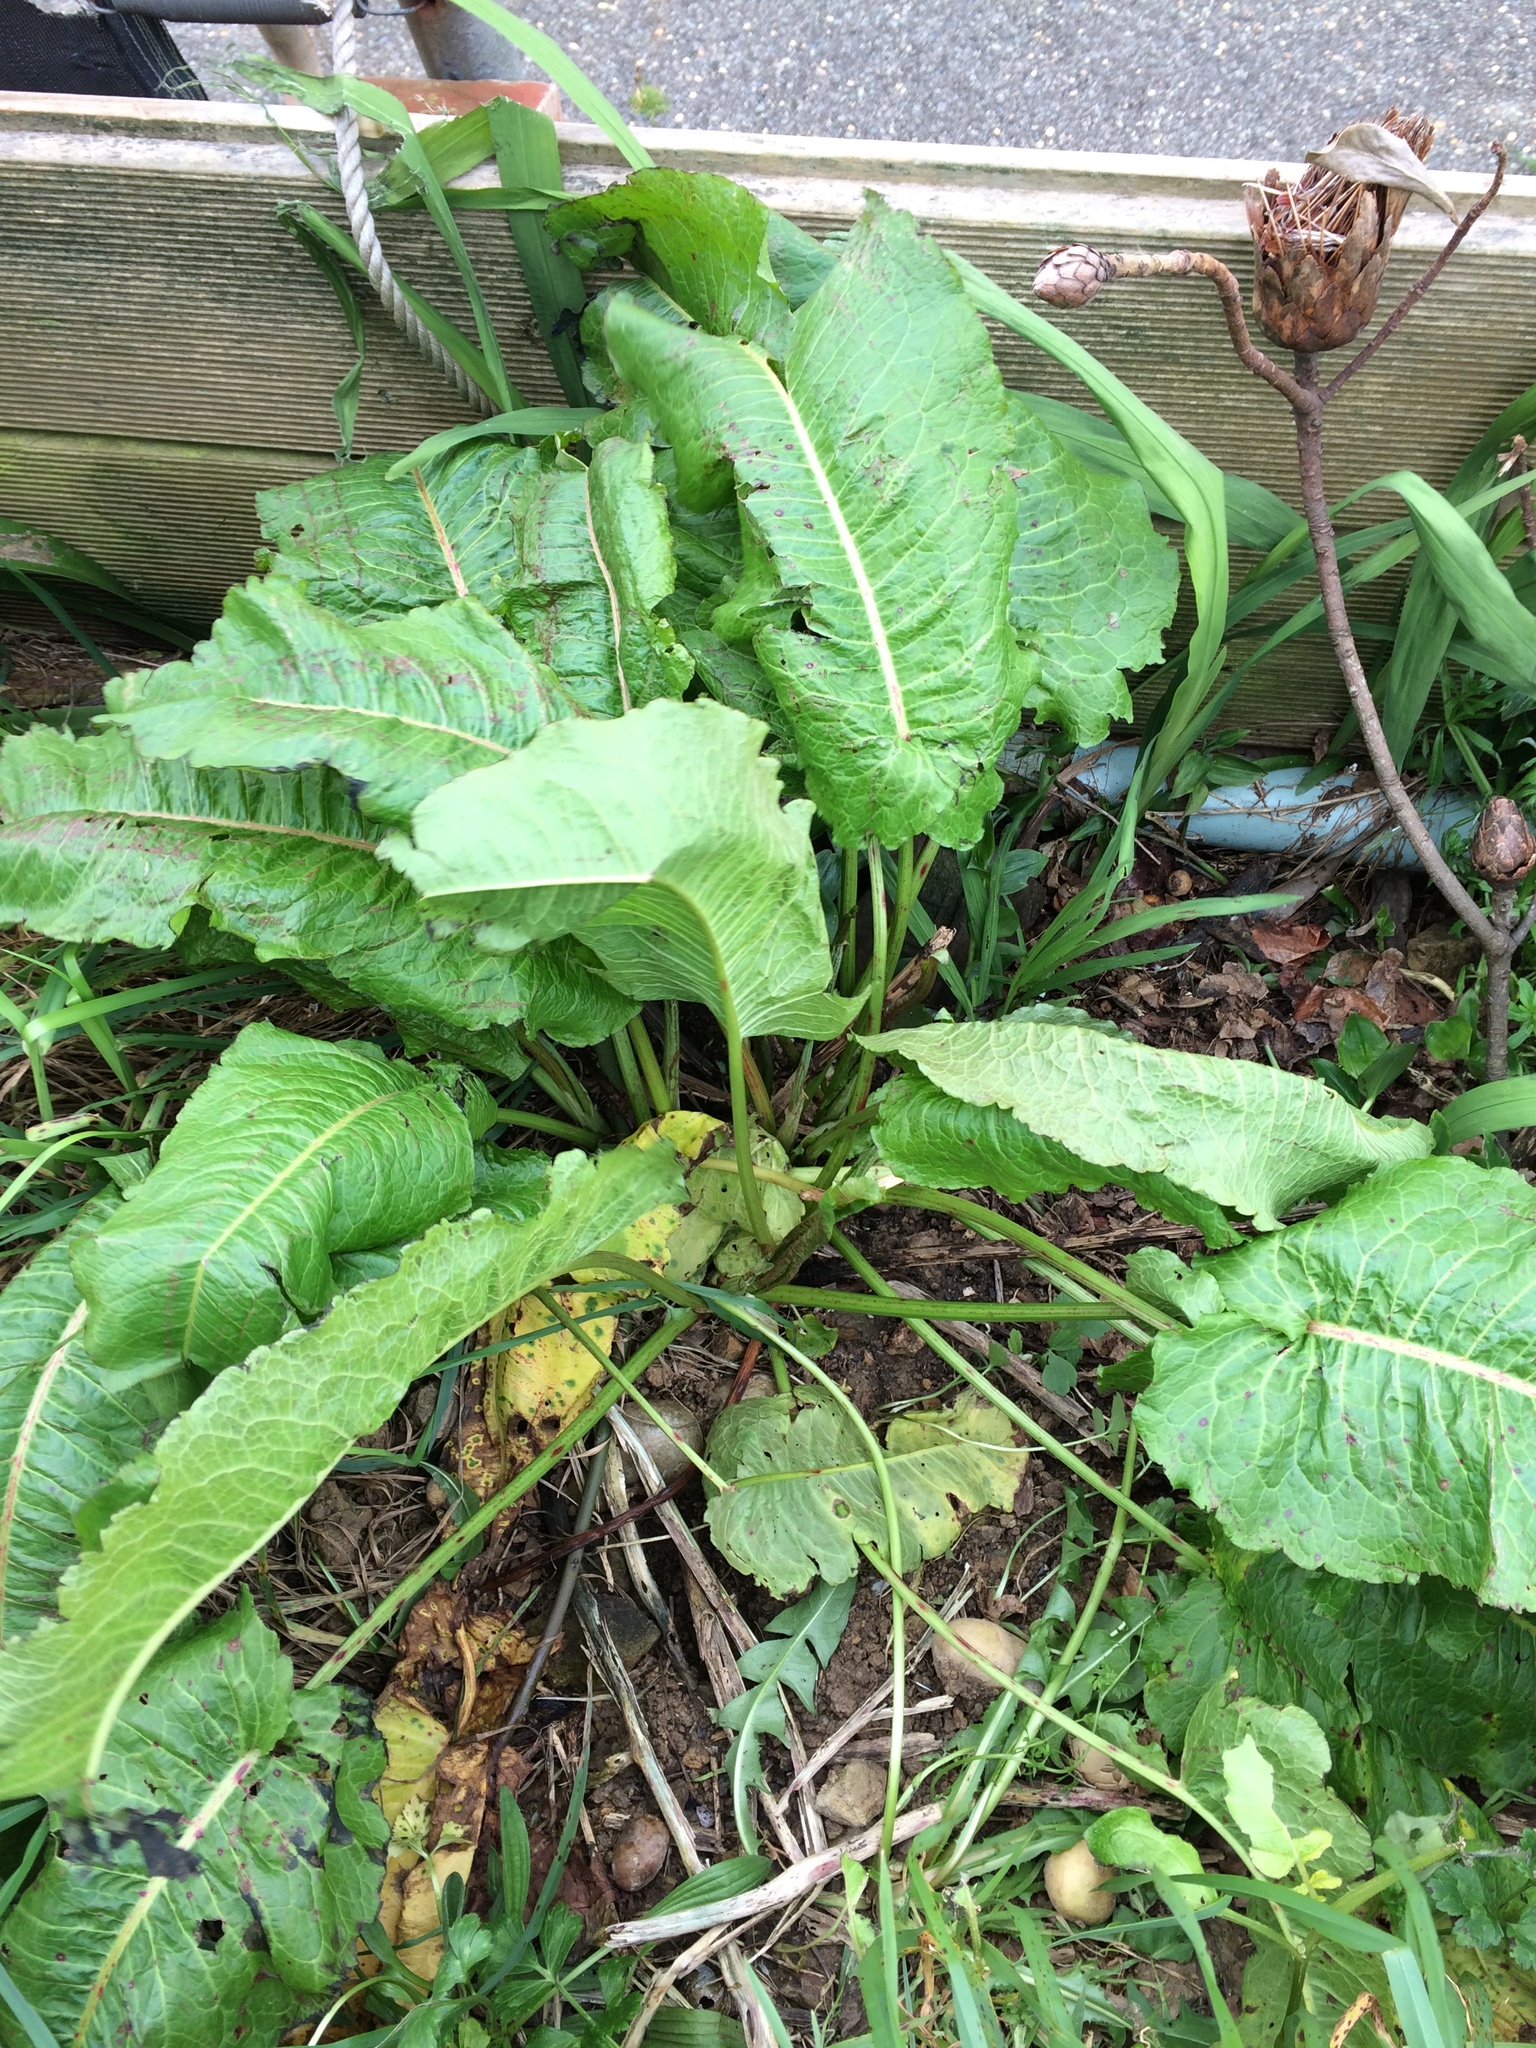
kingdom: Plantae
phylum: Tracheophyta
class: Magnoliopsida
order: Caryophyllales
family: Polygonaceae
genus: Rumex
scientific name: Rumex obtusifolius
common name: Bitter dock
